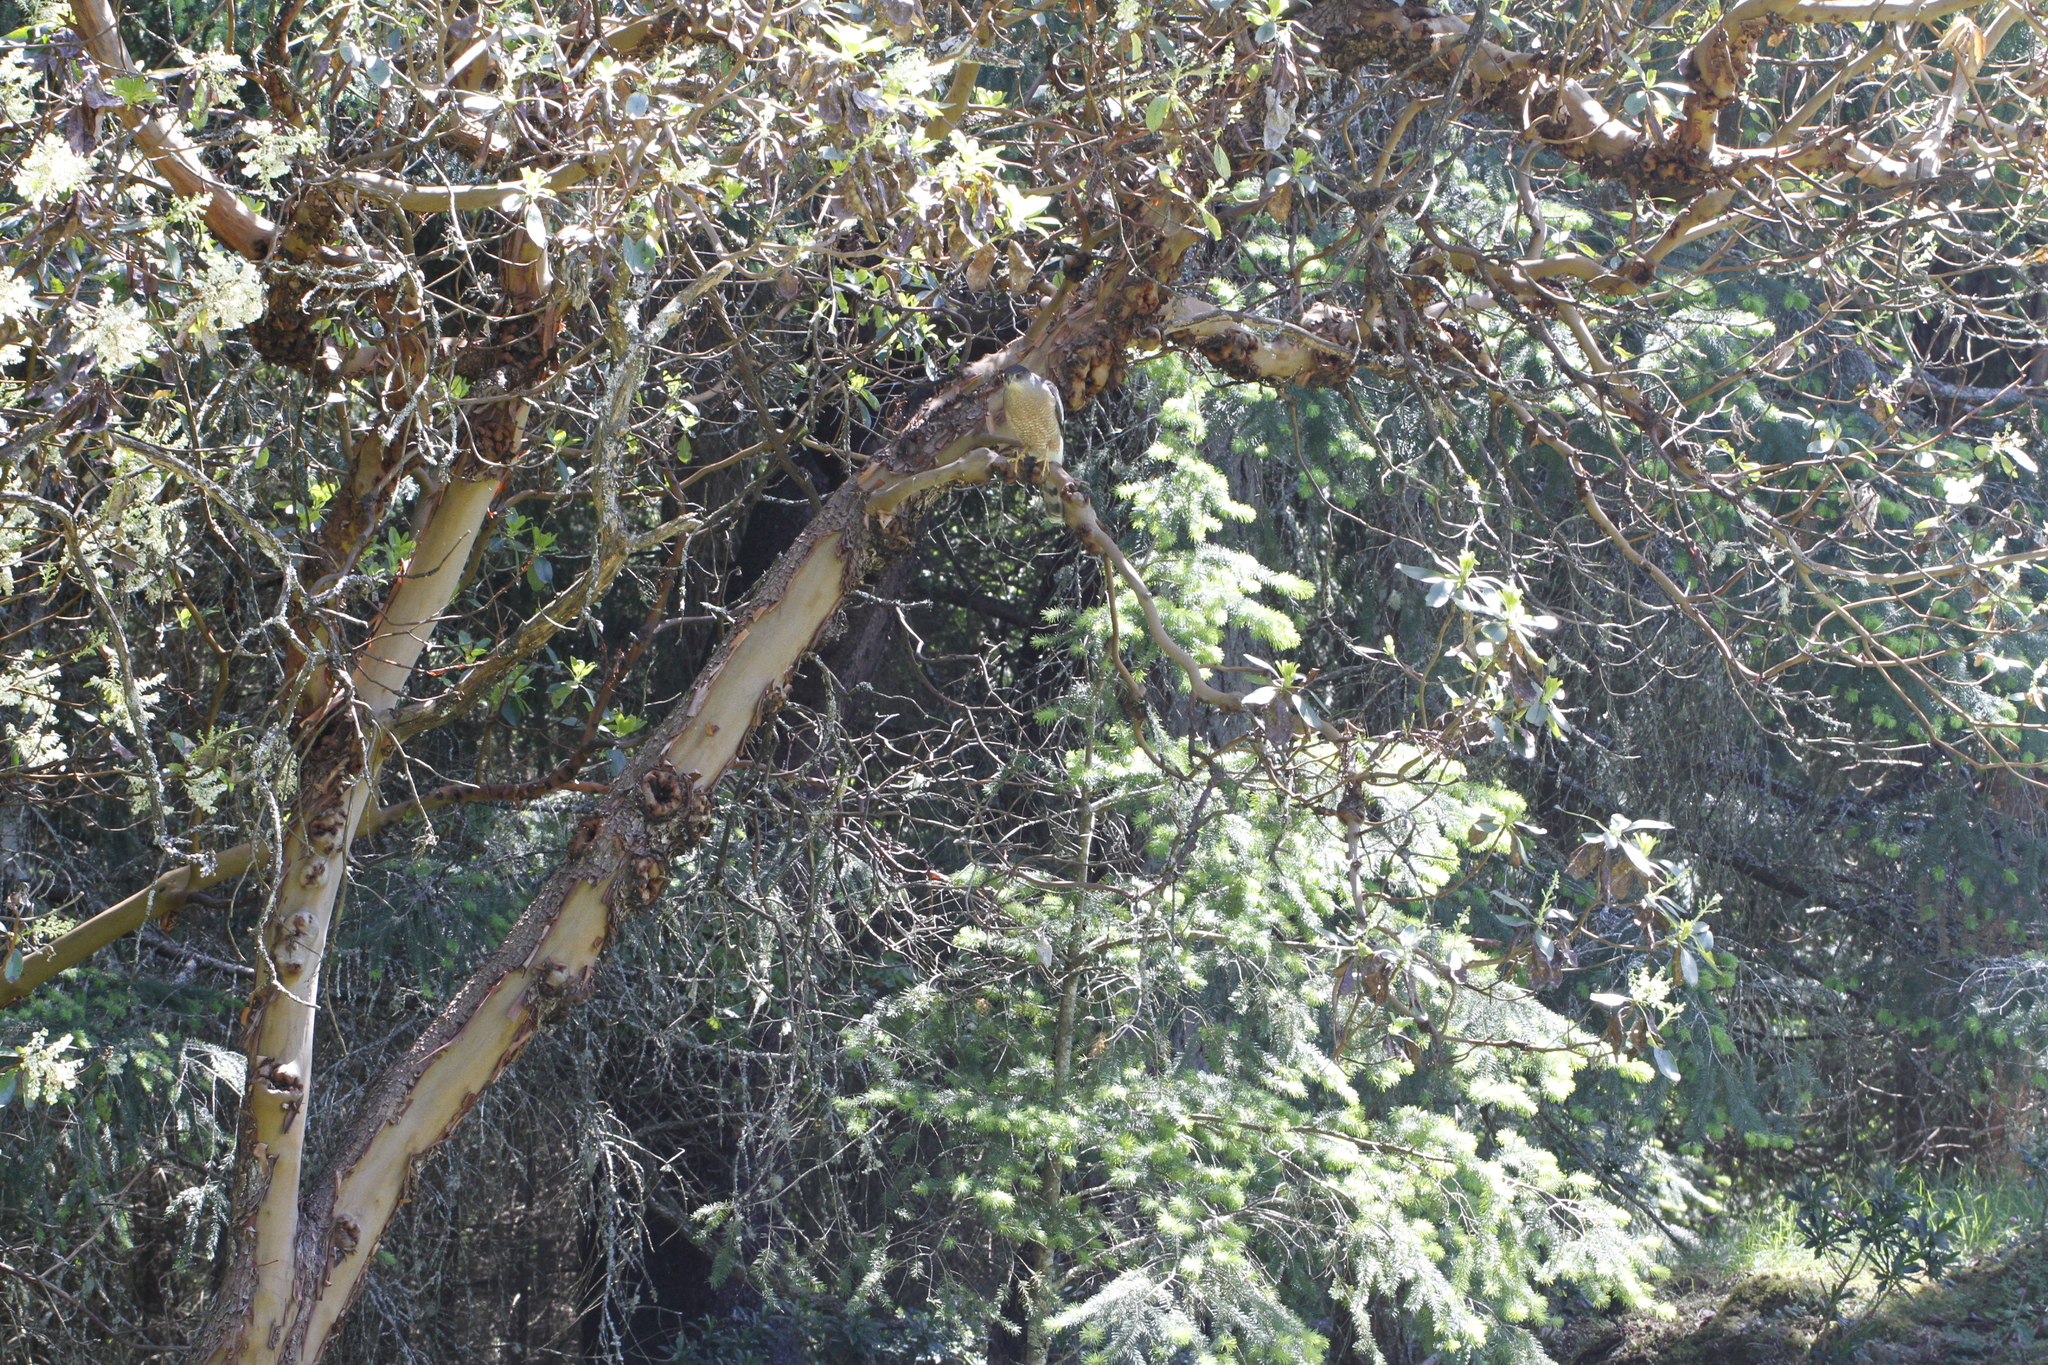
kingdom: Plantae
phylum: Tracheophyta
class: Magnoliopsida
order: Ericales
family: Ericaceae
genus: Arbutus
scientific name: Arbutus menziesii
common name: Pacific madrone
